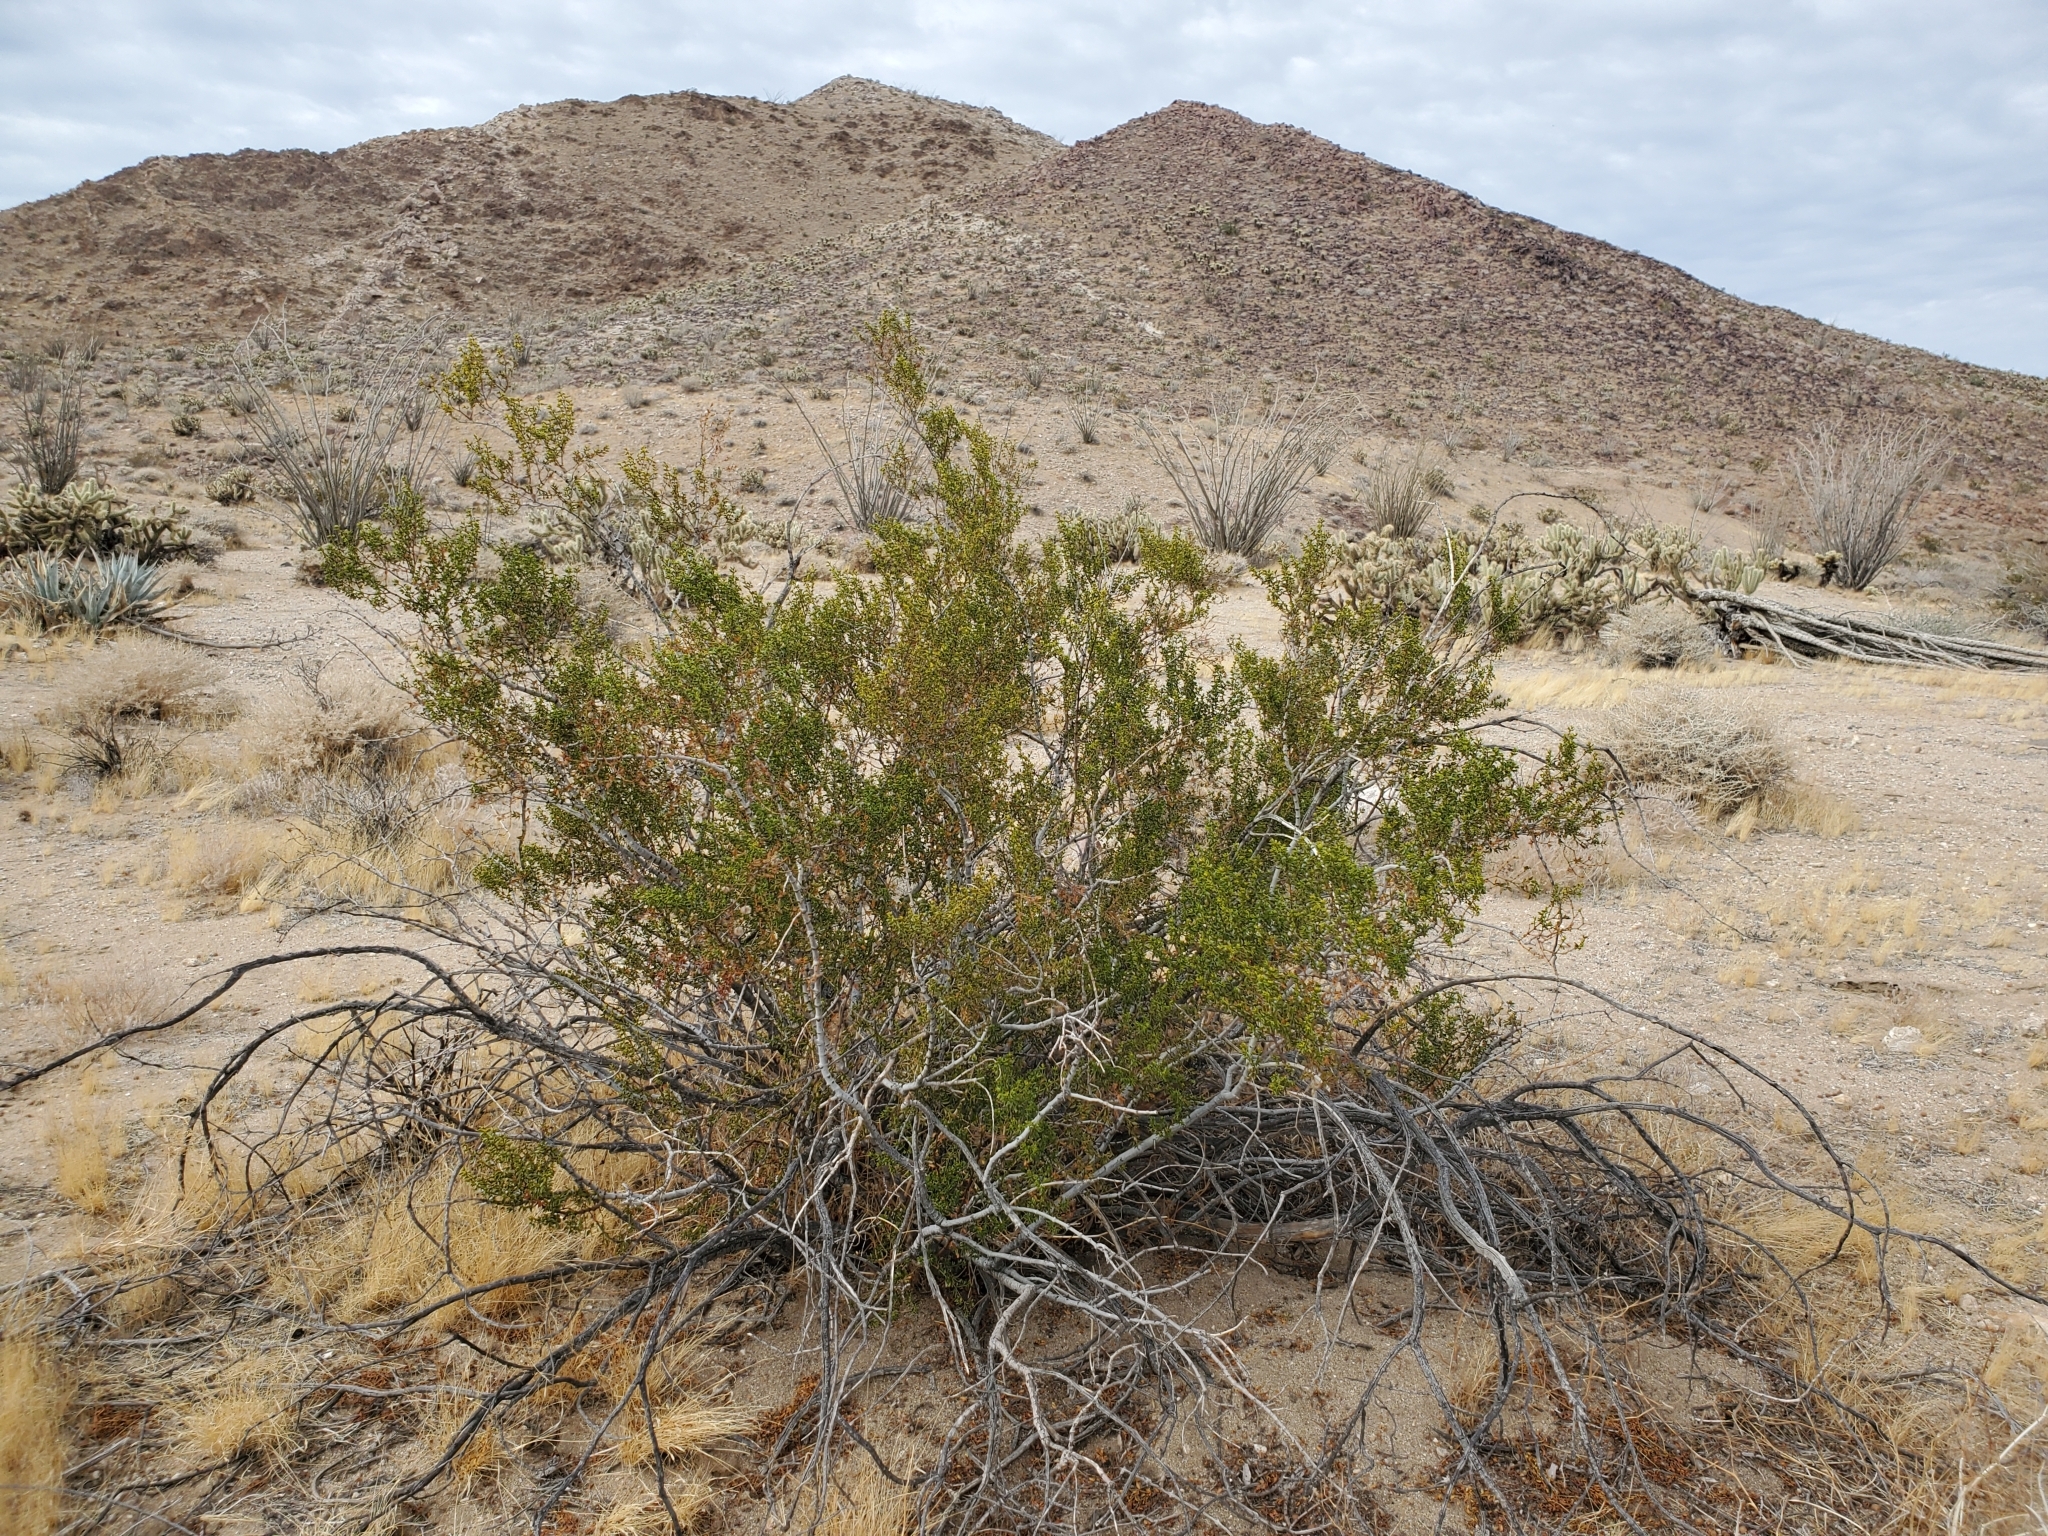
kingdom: Plantae
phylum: Tracheophyta
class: Magnoliopsida
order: Zygophyllales
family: Zygophyllaceae
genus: Larrea
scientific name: Larrea tridentata
